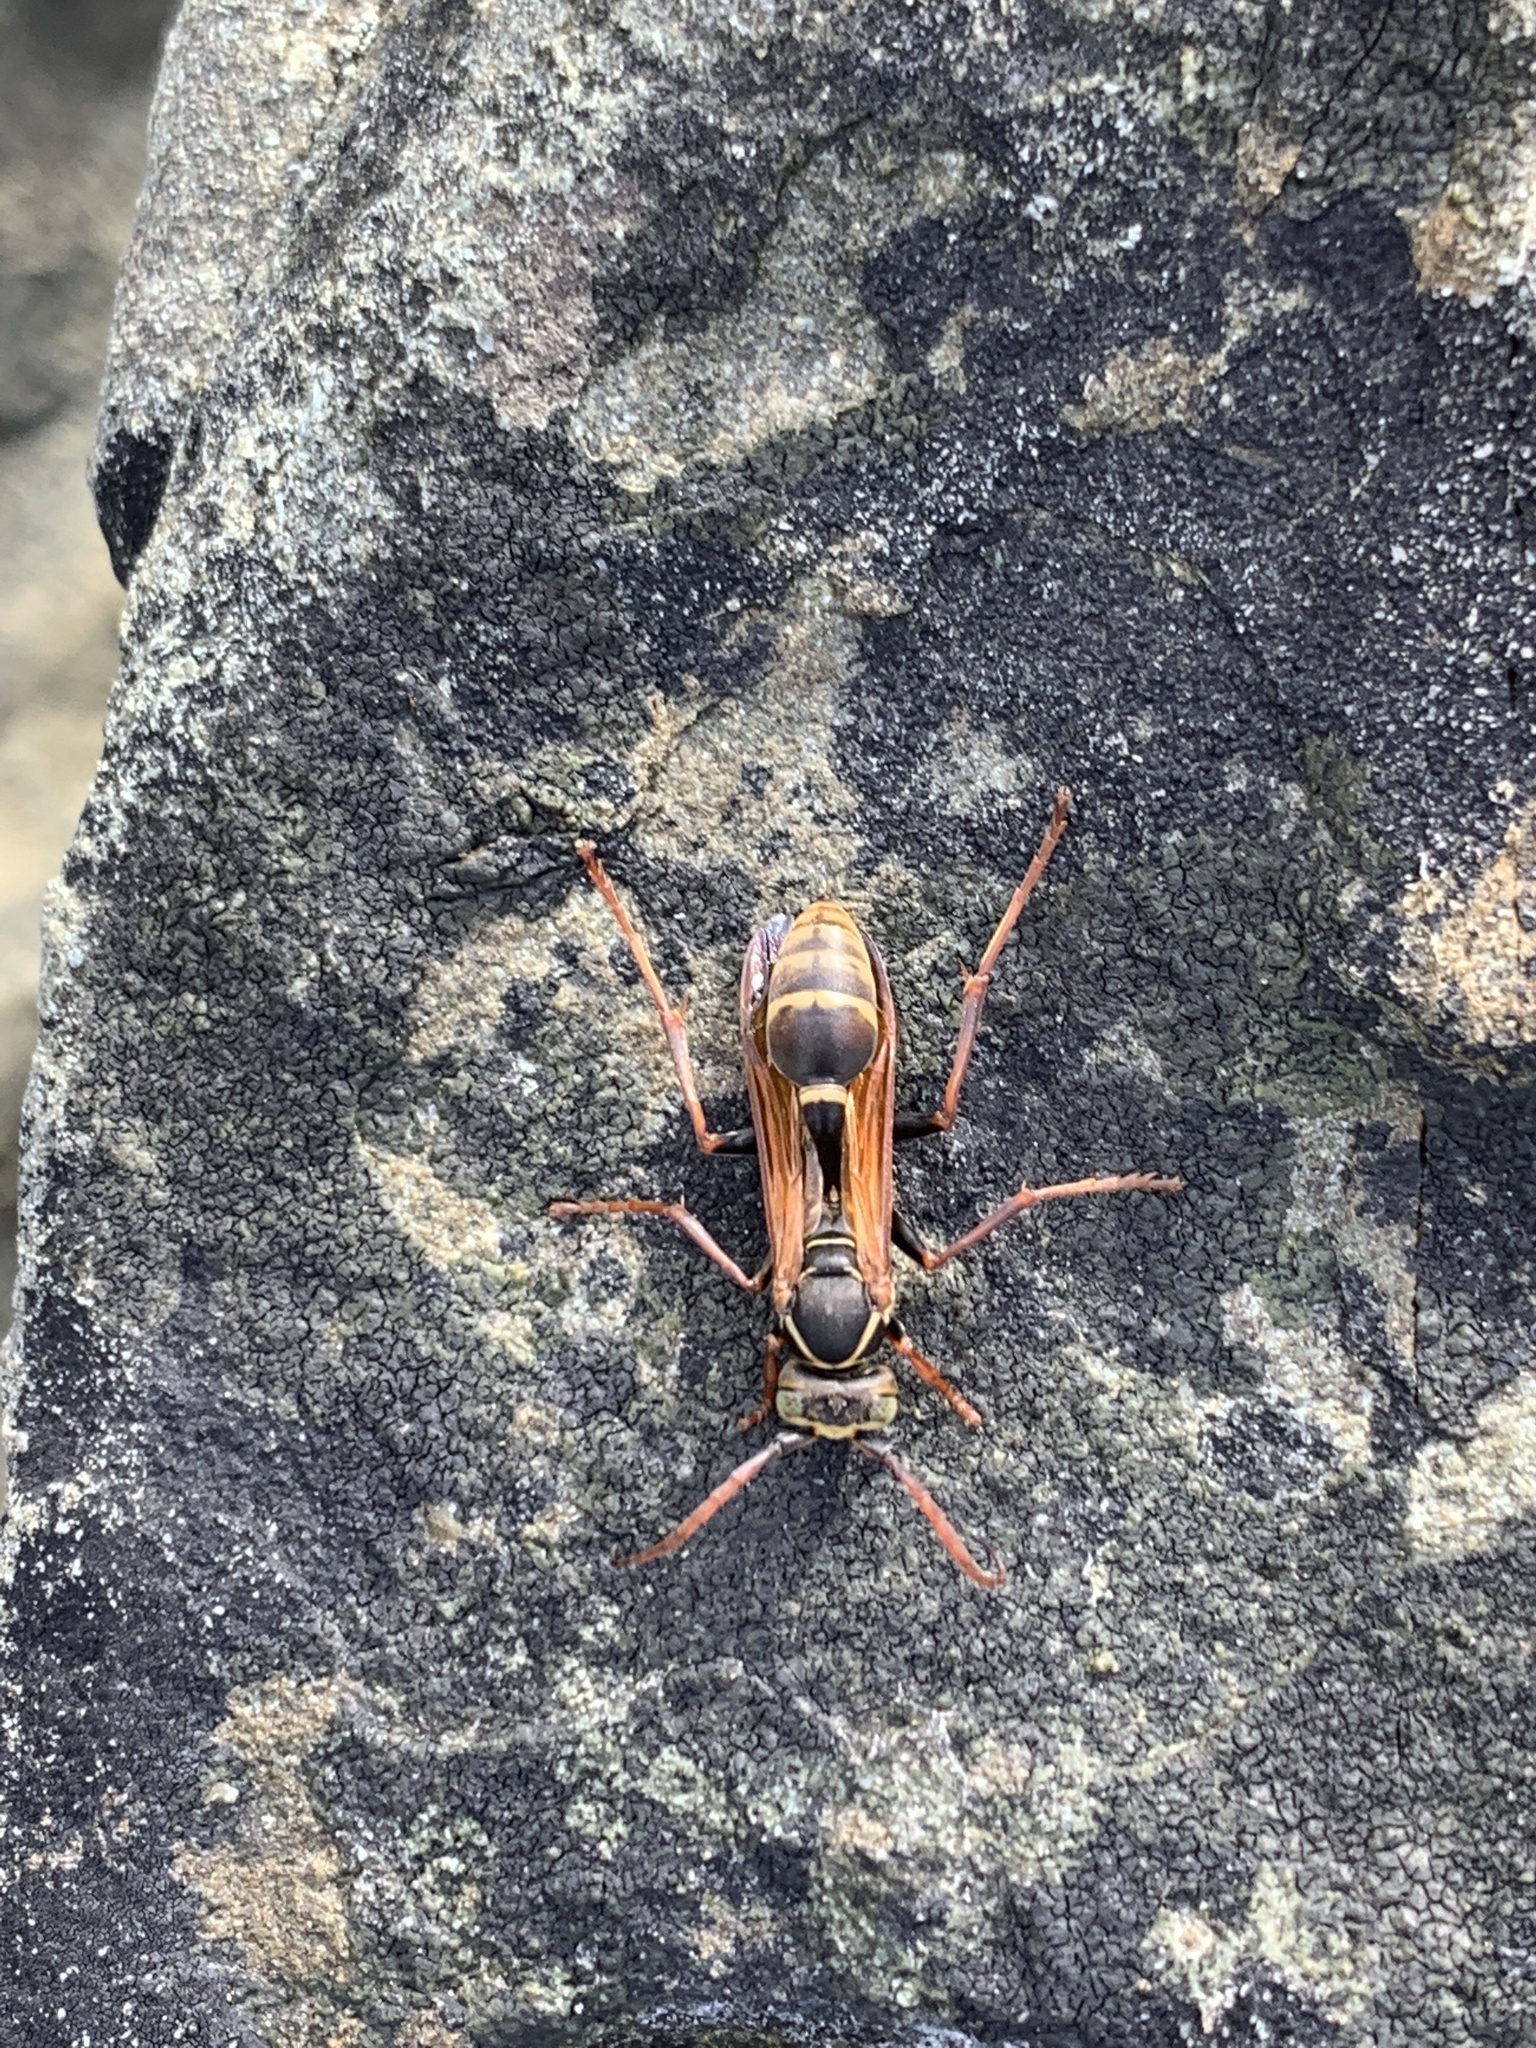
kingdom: Animalia
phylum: Arthropoda
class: Insecta
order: Hymenoptera
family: Vespidae
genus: Mischocyttarus
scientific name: Mischocyttarus flavitarsis
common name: Wasp
